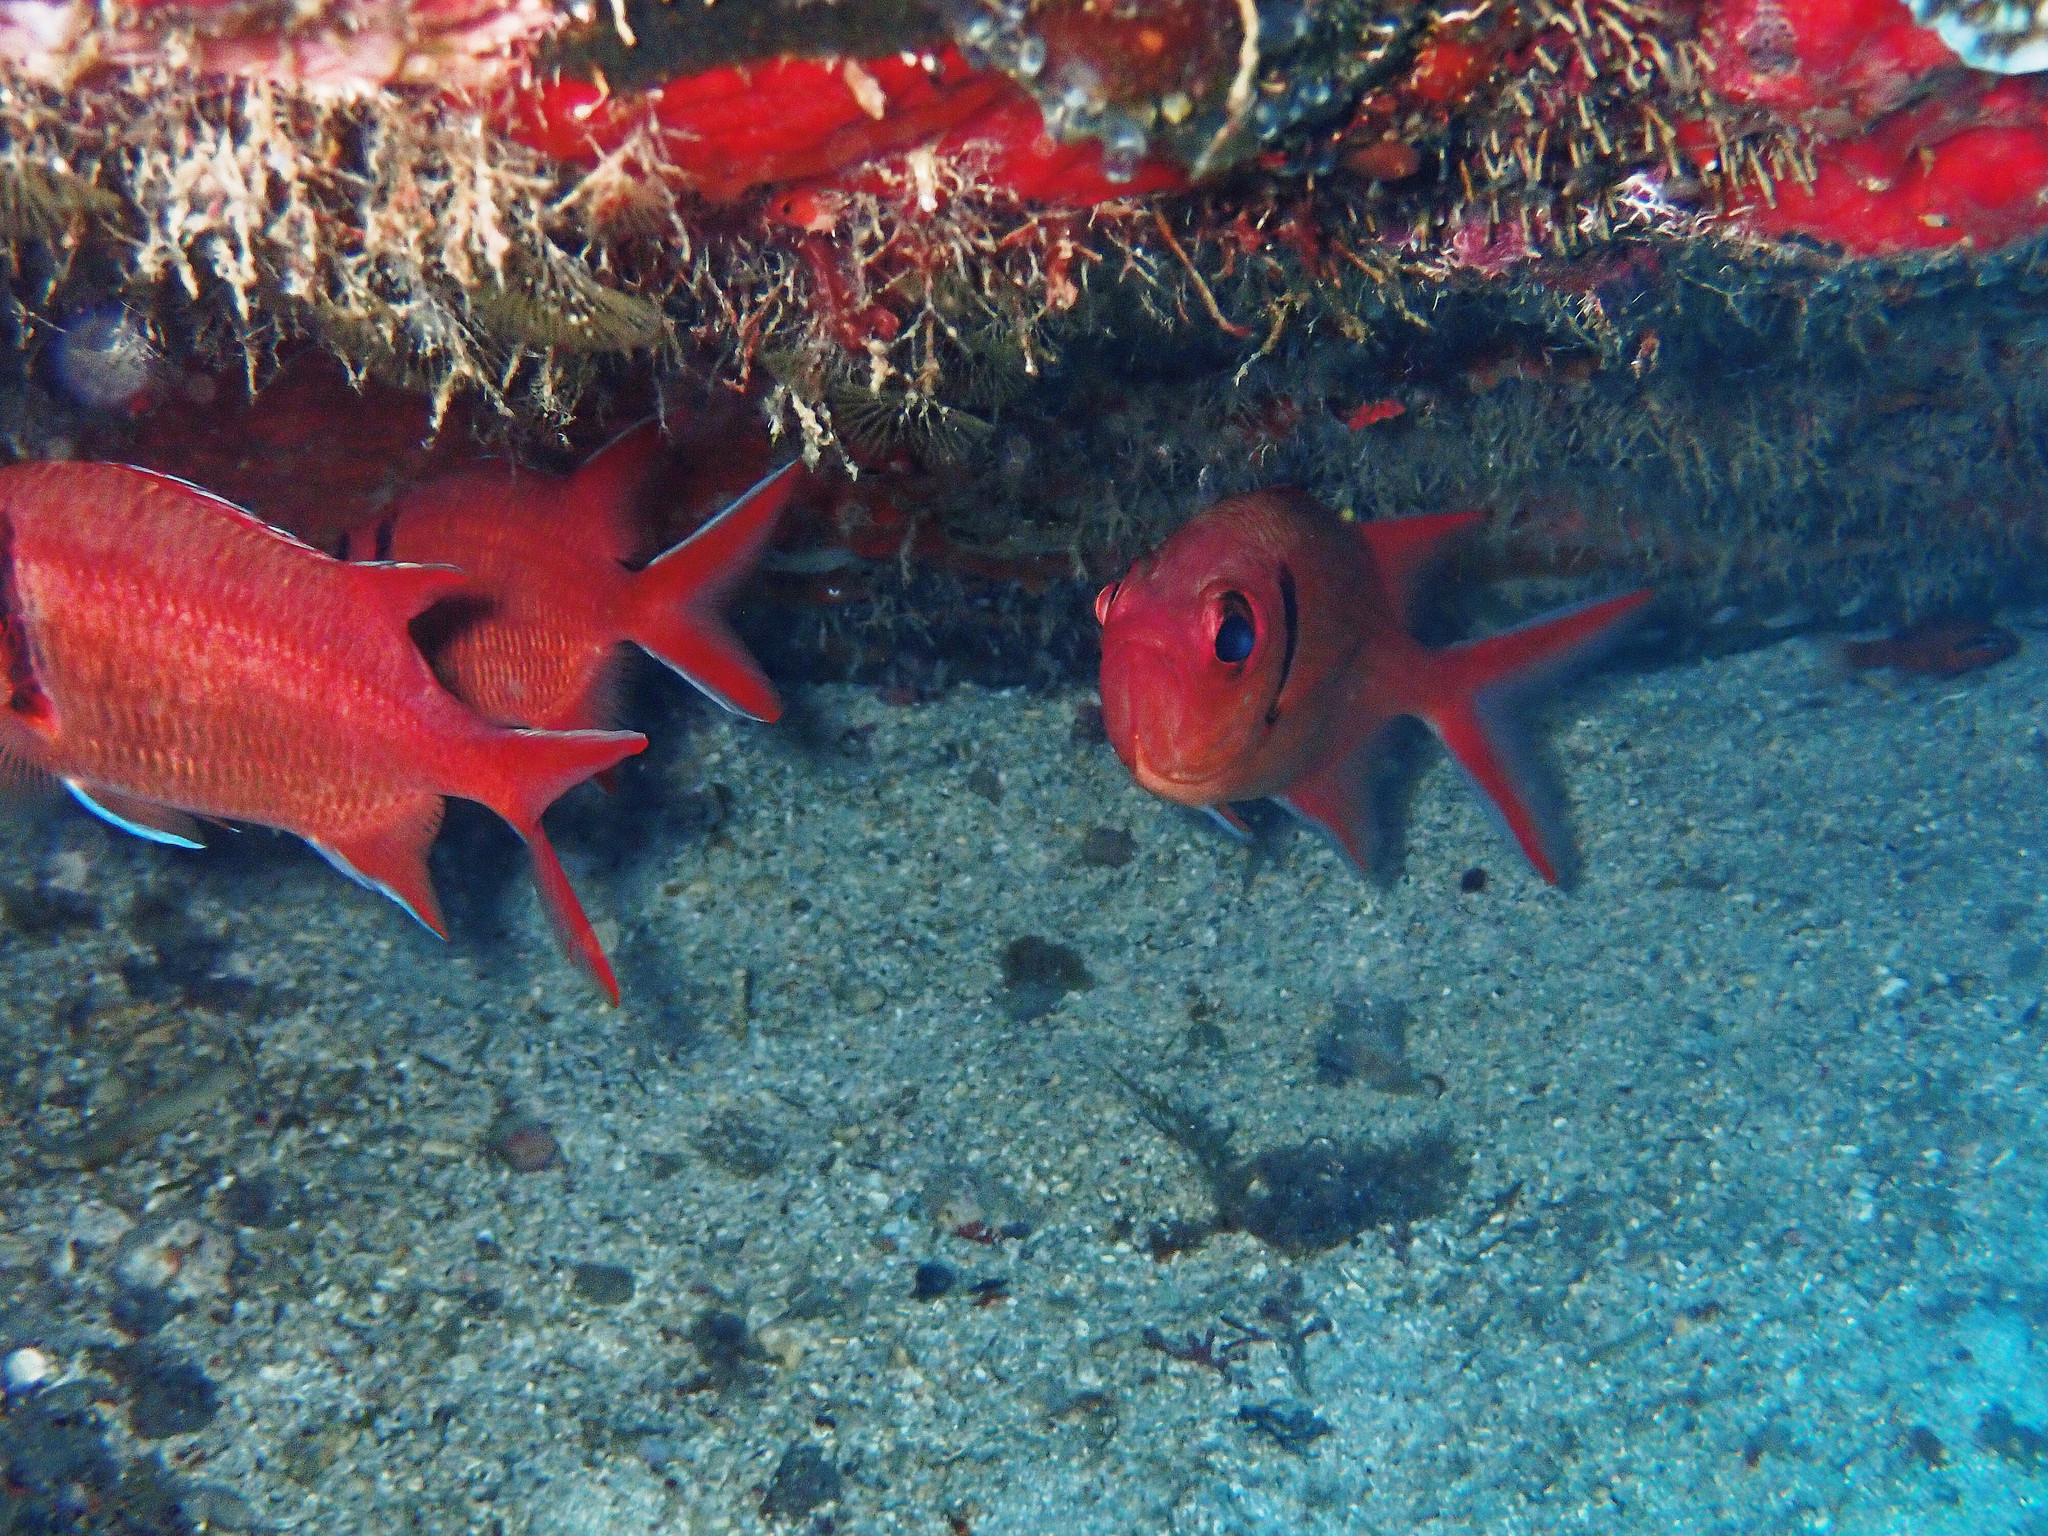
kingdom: Animalia
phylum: Chordata
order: Beryciformes
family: Holocentridae
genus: Myripristis
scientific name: Myripristis jacobus
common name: Blackbar soldierfish
